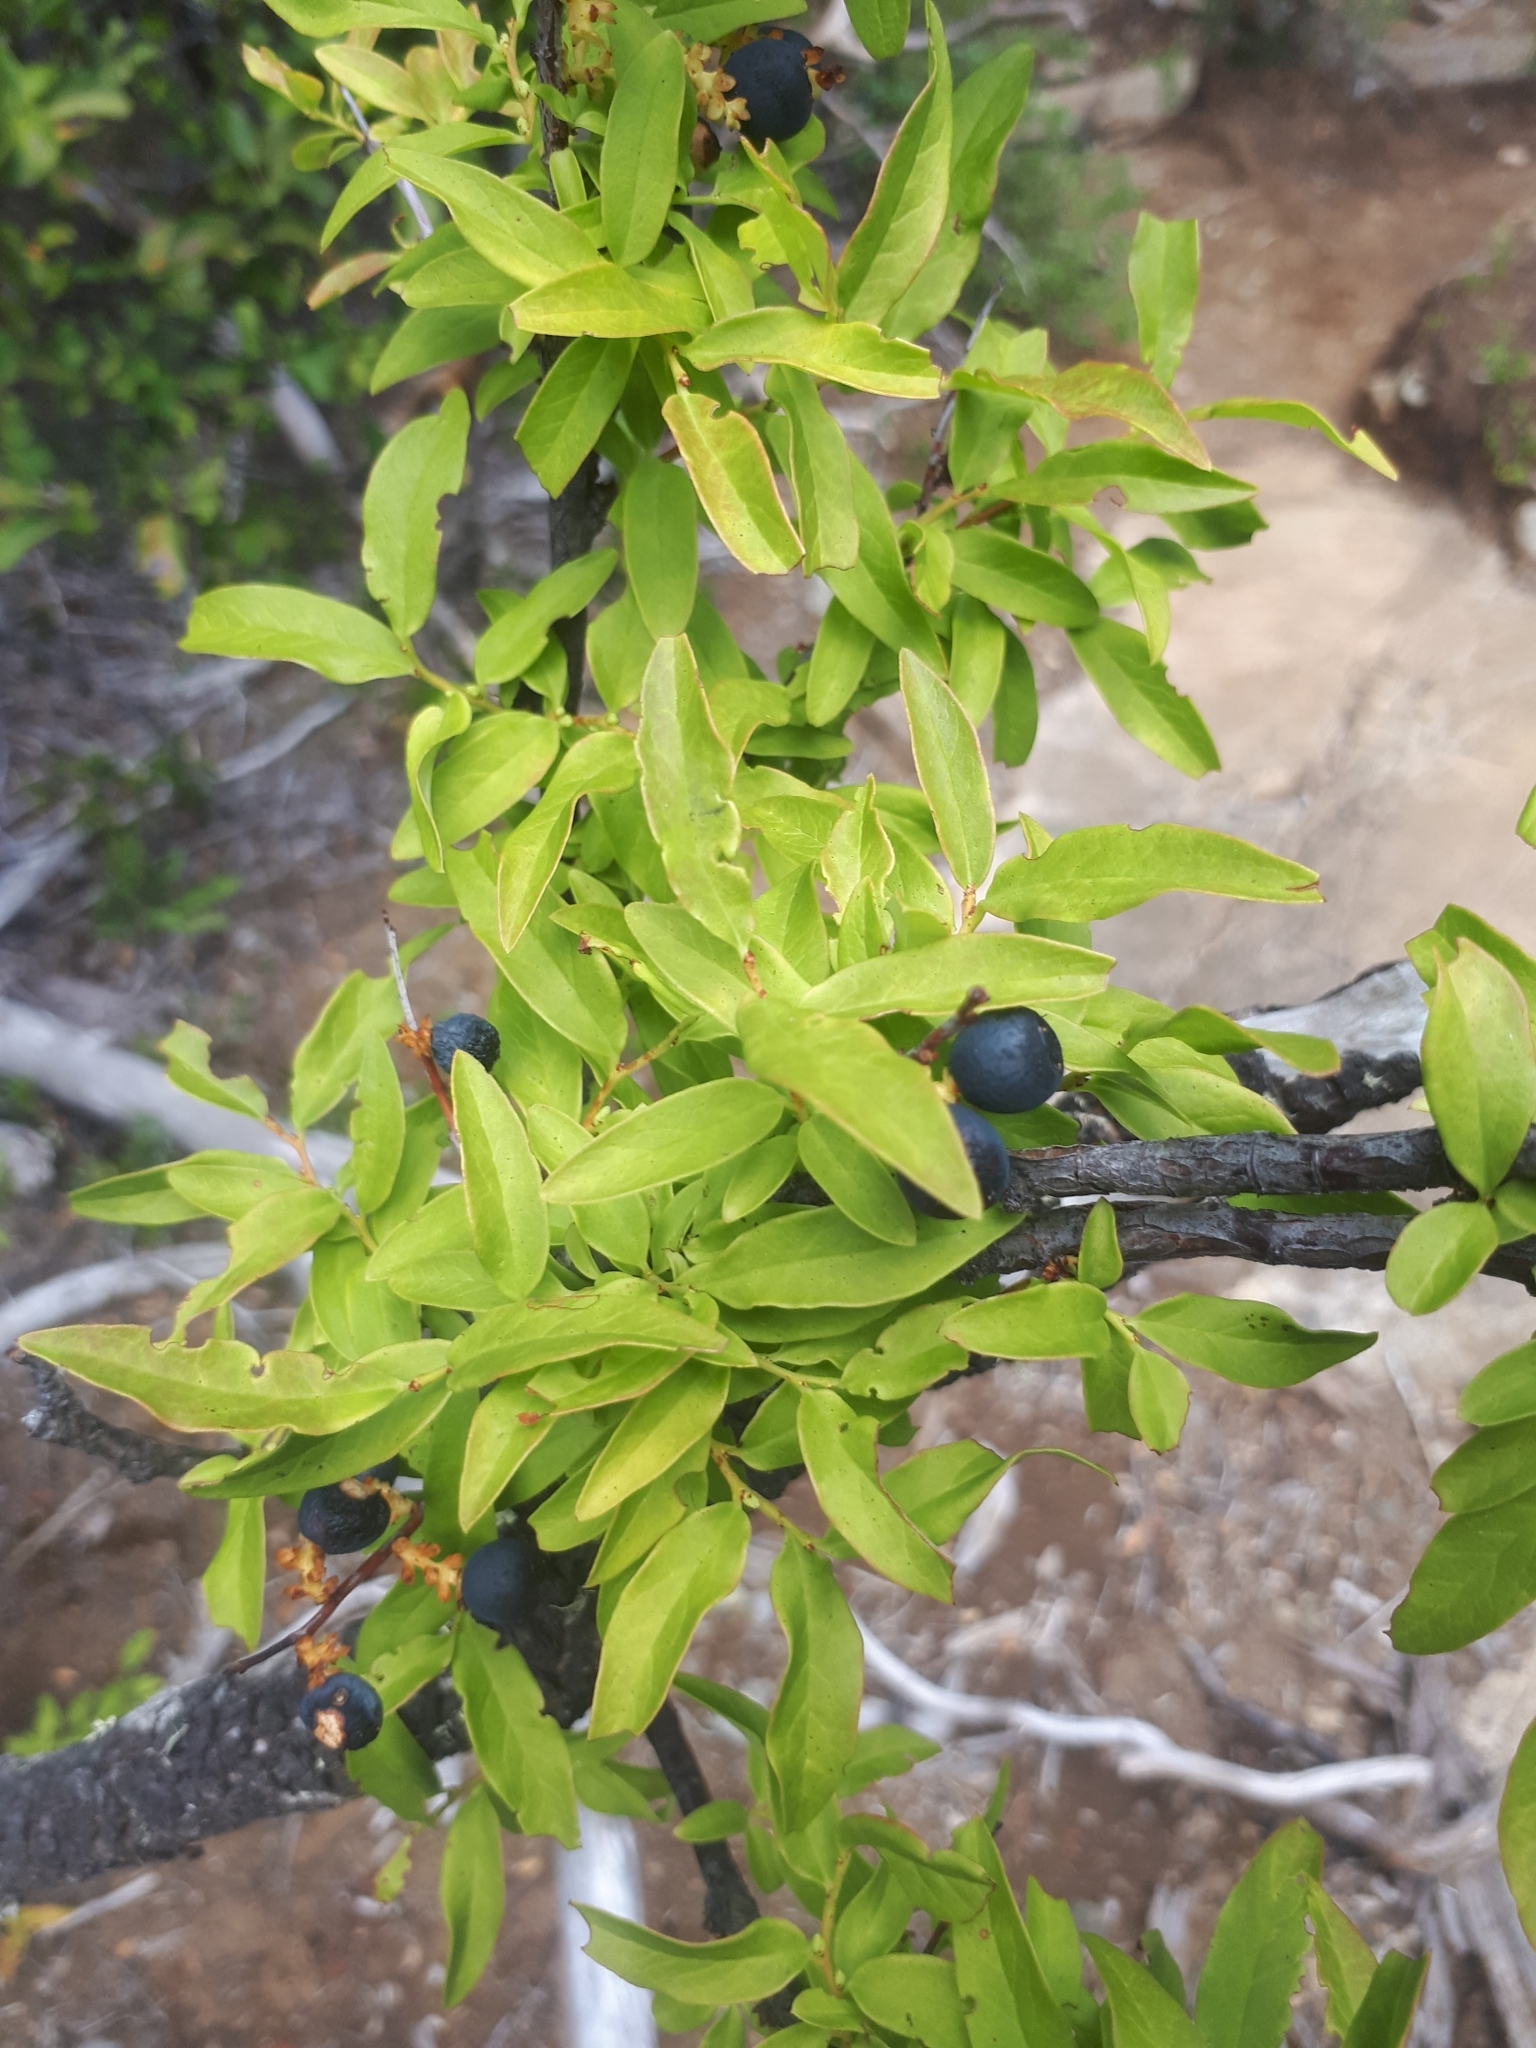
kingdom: Plantae
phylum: Tracheophyta
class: Magnoliopsida
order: Santalales
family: Santalaceae
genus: Myoschilos
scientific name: Myoschilos oblongum
